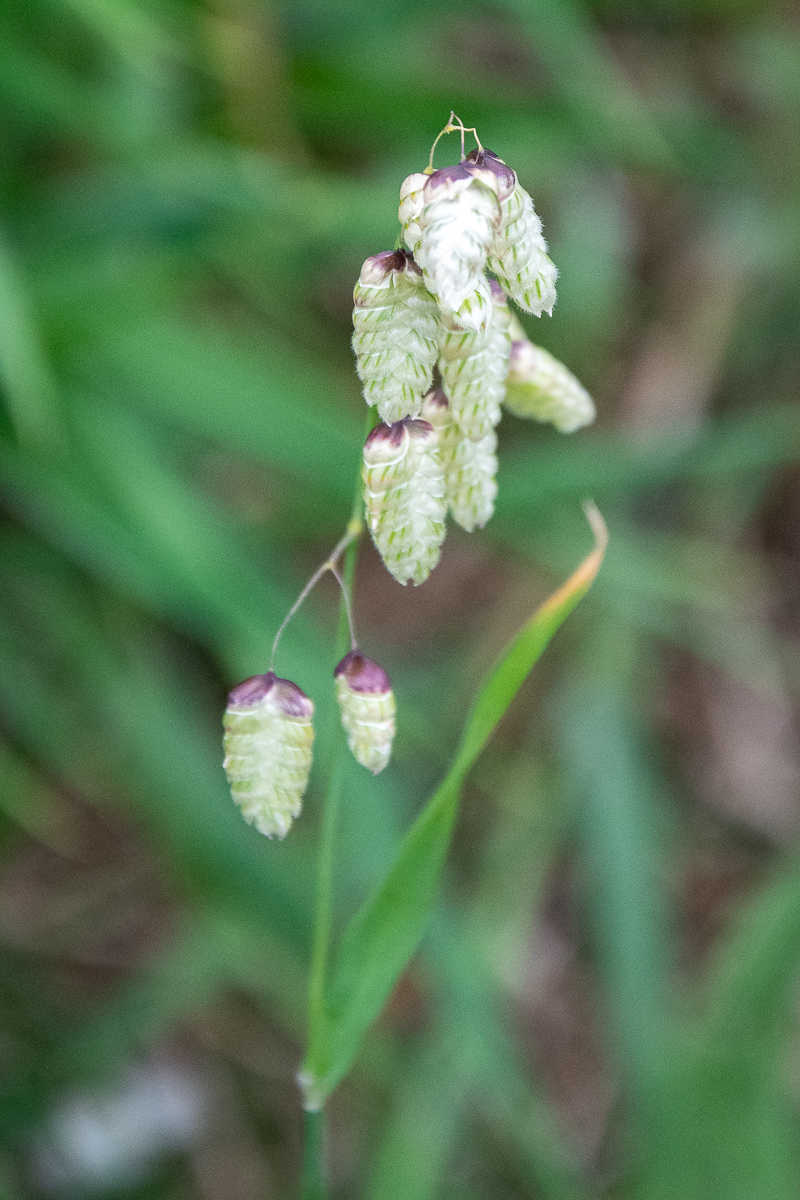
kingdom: Plantae
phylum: Tracheophyta
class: Liliopsida
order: Poales
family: Poaceae
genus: Briza
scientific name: Briza maxima
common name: Big quakinggrass
